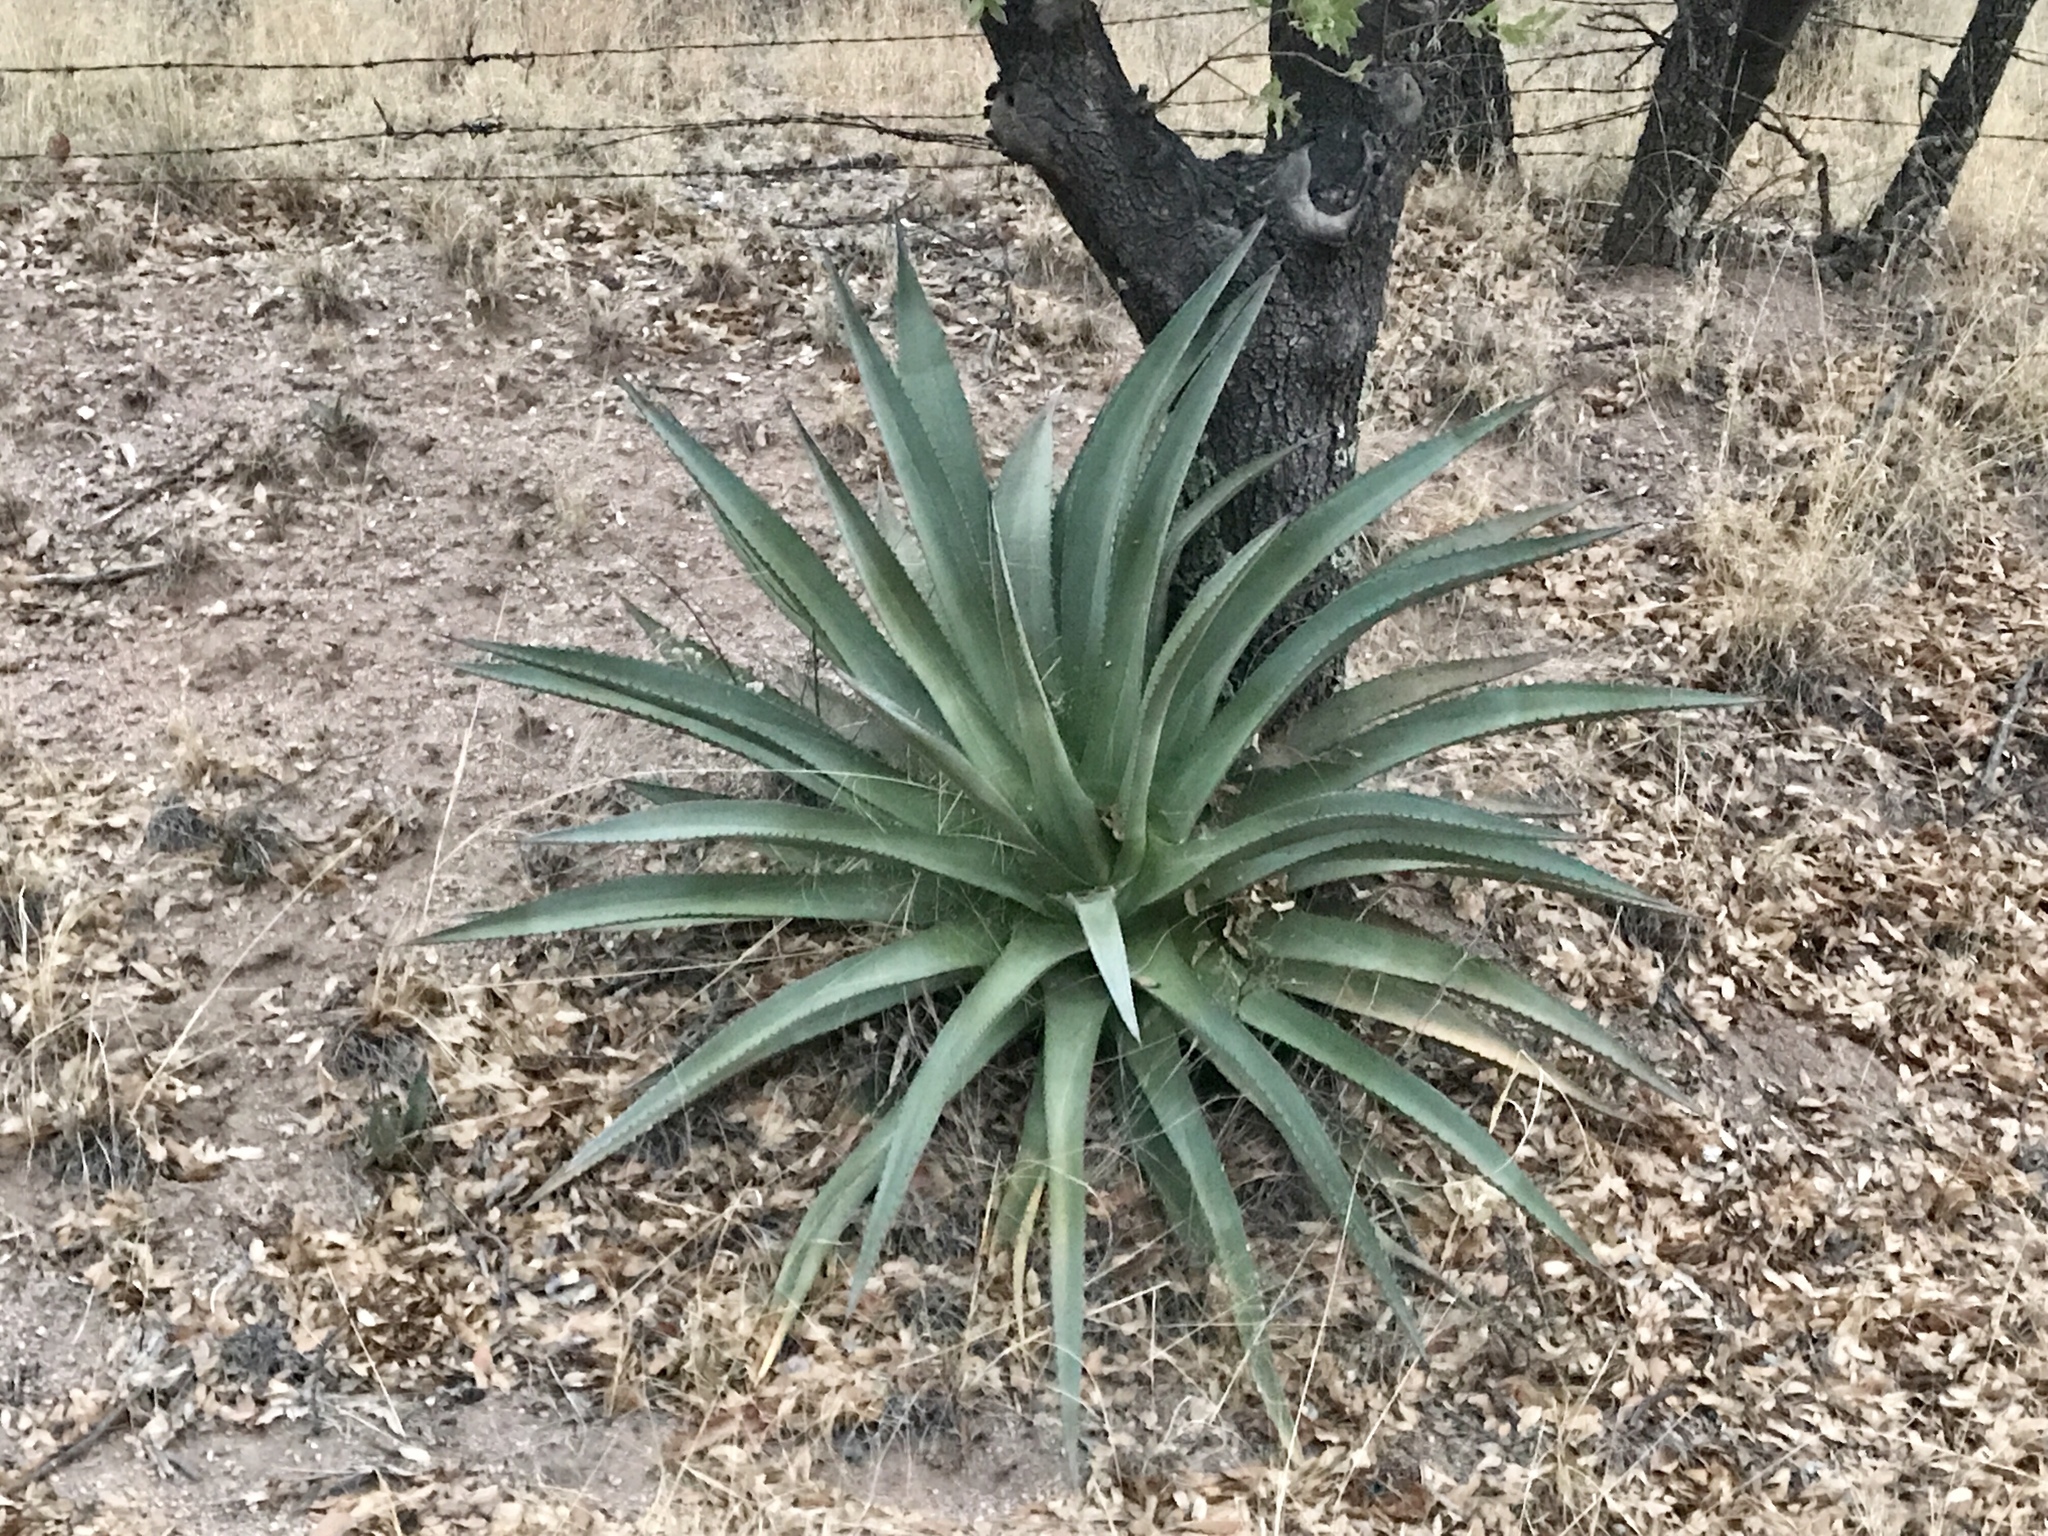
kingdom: Plantae
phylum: Tracheophyta
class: Liliopsida
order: Asparagales
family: Asparagaceae
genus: Agave
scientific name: Agave palmeri
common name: Palmer agave
